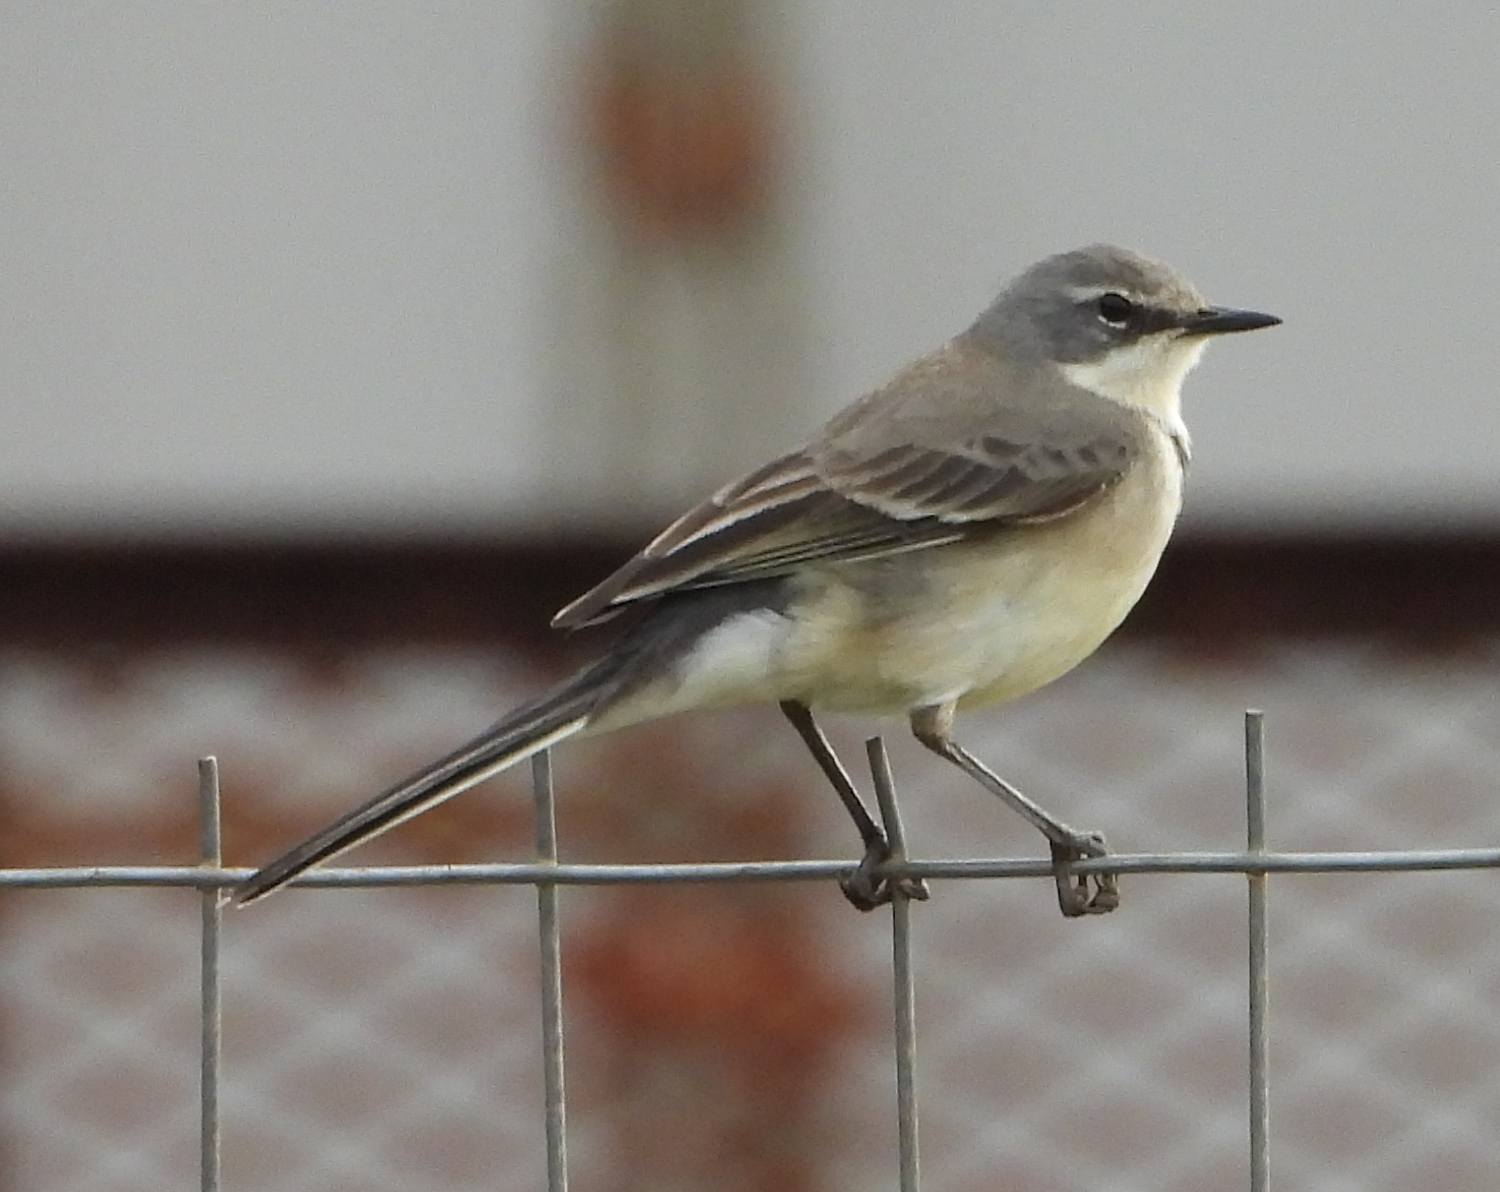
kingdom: Animalia
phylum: Chordata
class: Aves
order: Passeriformes
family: Motacillidae
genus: Motacilla
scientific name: Motacilla capensis
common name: Cape wagtail
